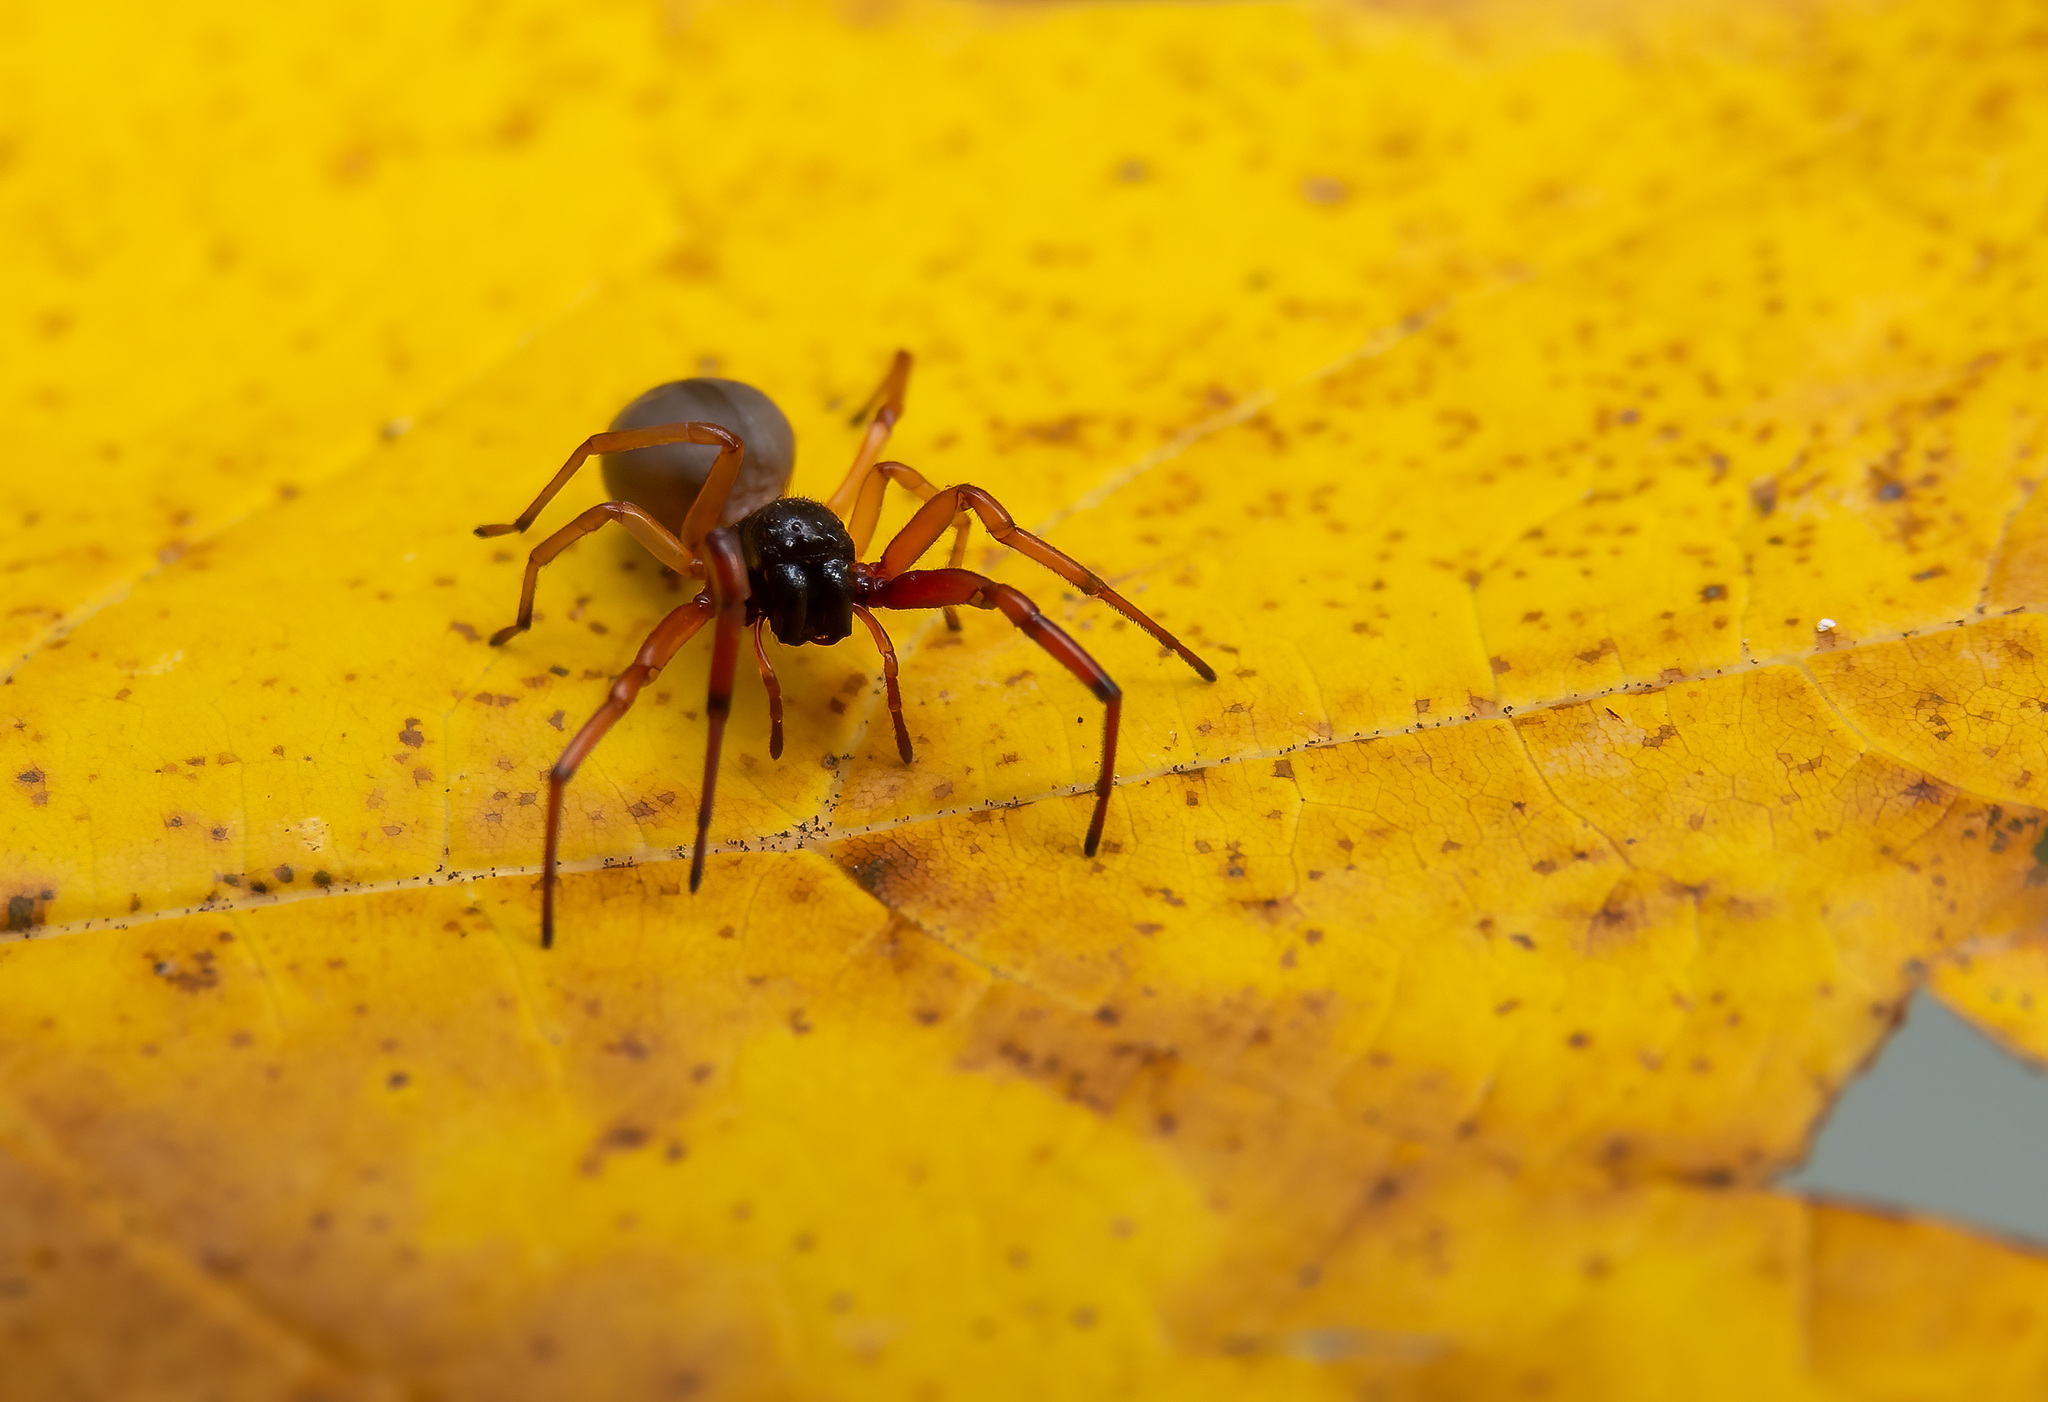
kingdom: Animalia
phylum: Arthropoda
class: Arachnida
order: Araneae
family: Trachelidae
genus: Trachelas
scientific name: Trachelas tranquillus
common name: Broad-faced sac spider
